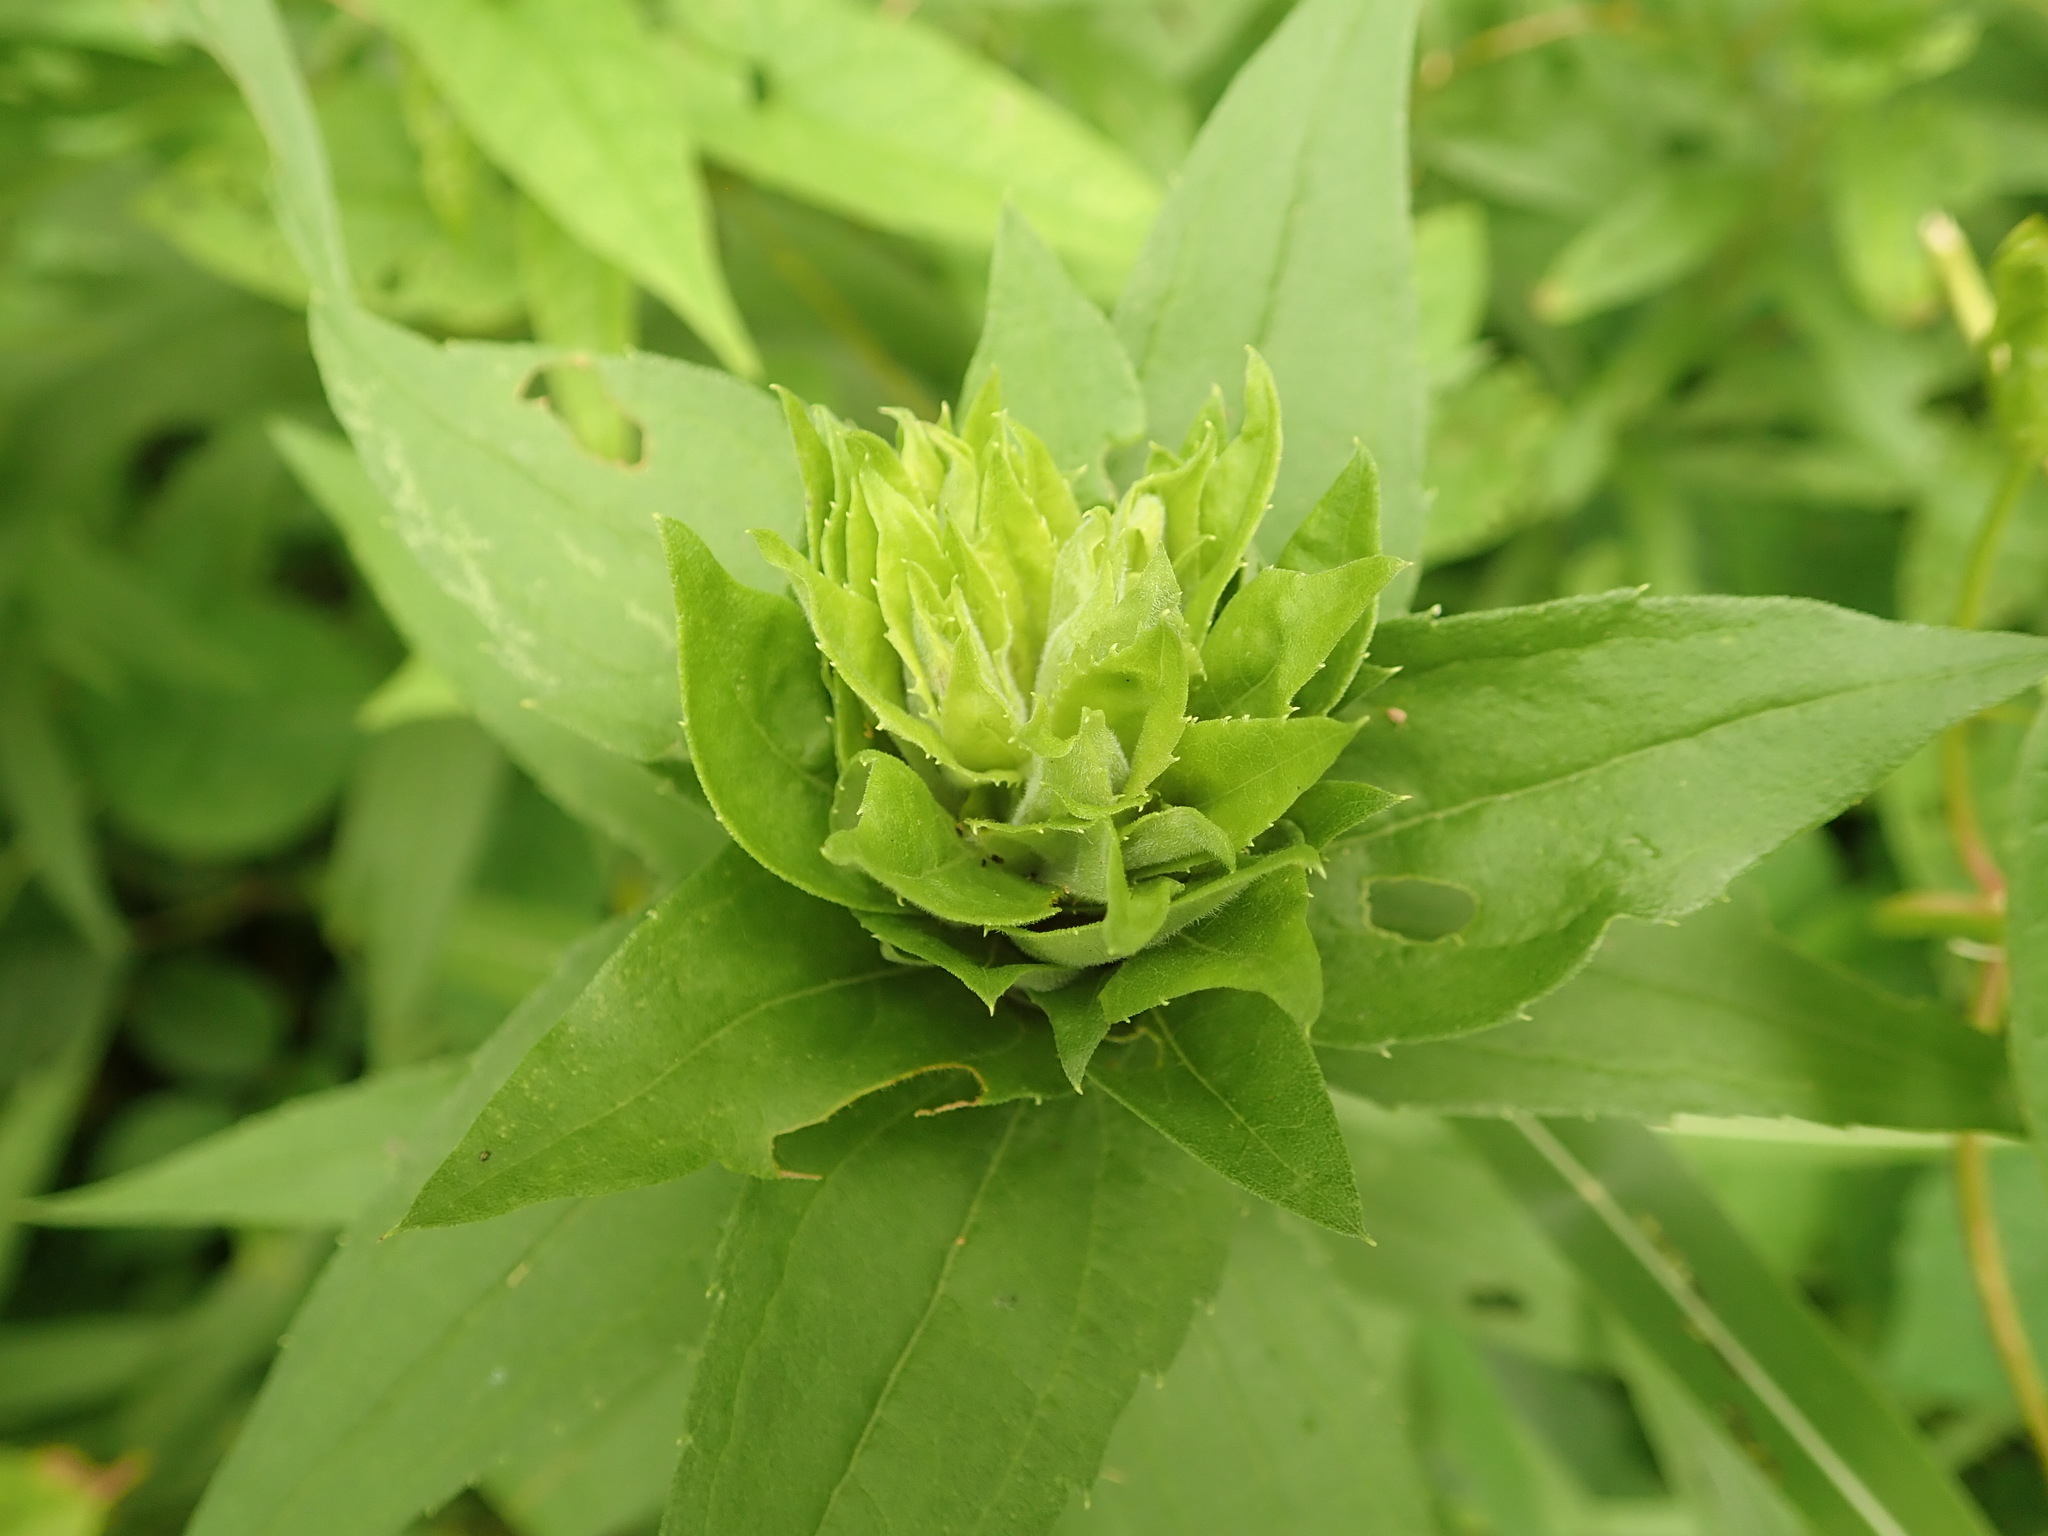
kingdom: Animalia
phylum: Arthropoda
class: Insecta
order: Diptera
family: Cecidomyiidae
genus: Rhopalomyia
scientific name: Rhopalomyia solidaginis
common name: Goldenrod bunch gall midge
